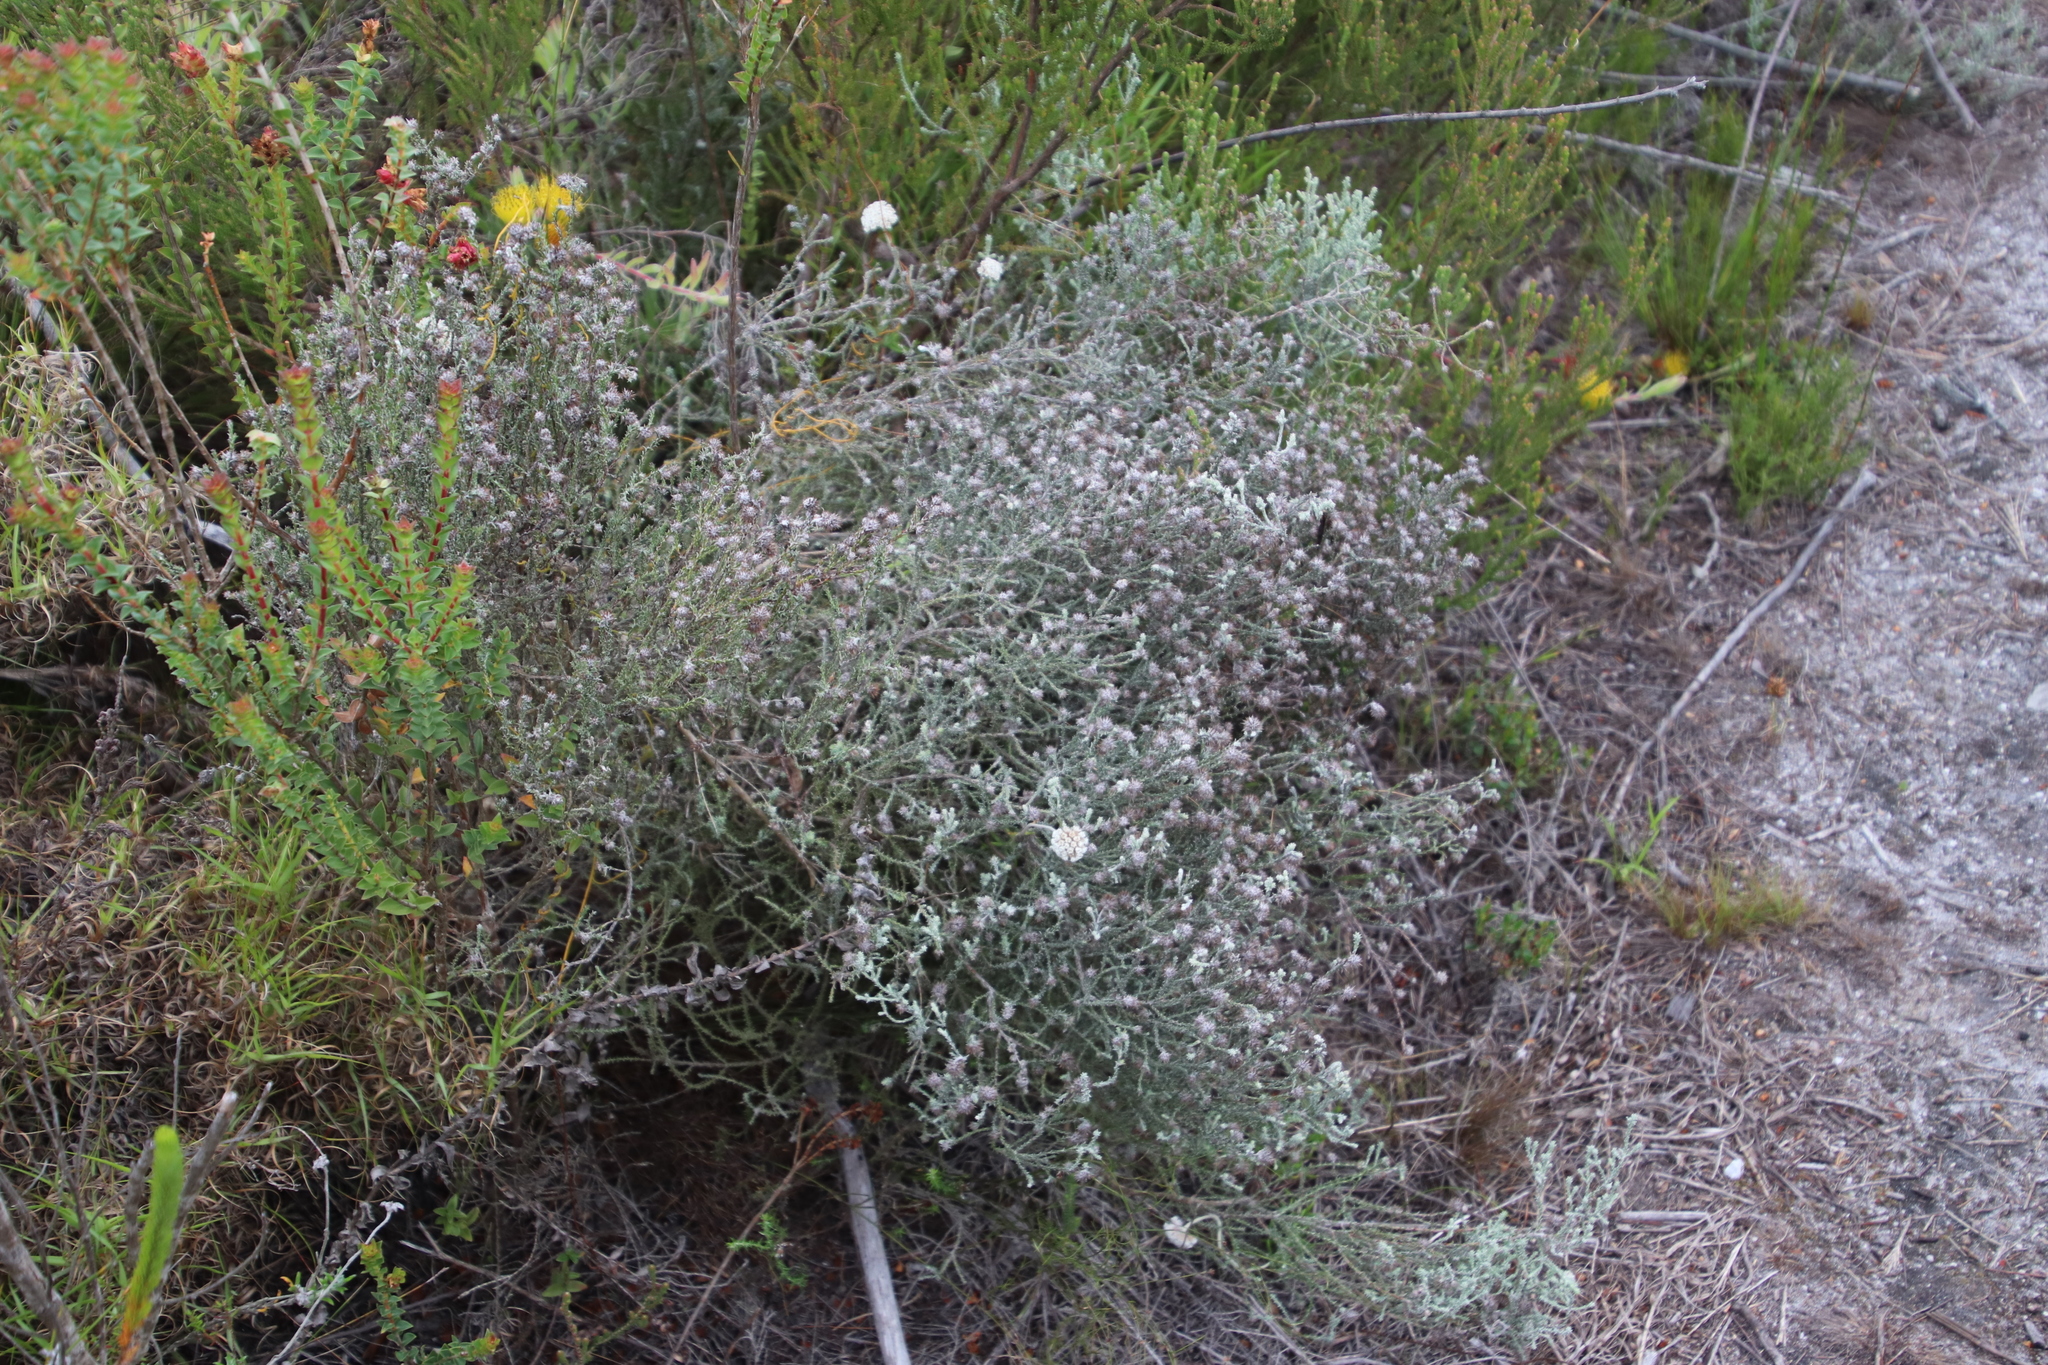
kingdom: Plantae
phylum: Tracheophyta
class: Magnoliopsida
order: Asterales
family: Asteraceae
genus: Seriphium
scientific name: Seriphium incanum
